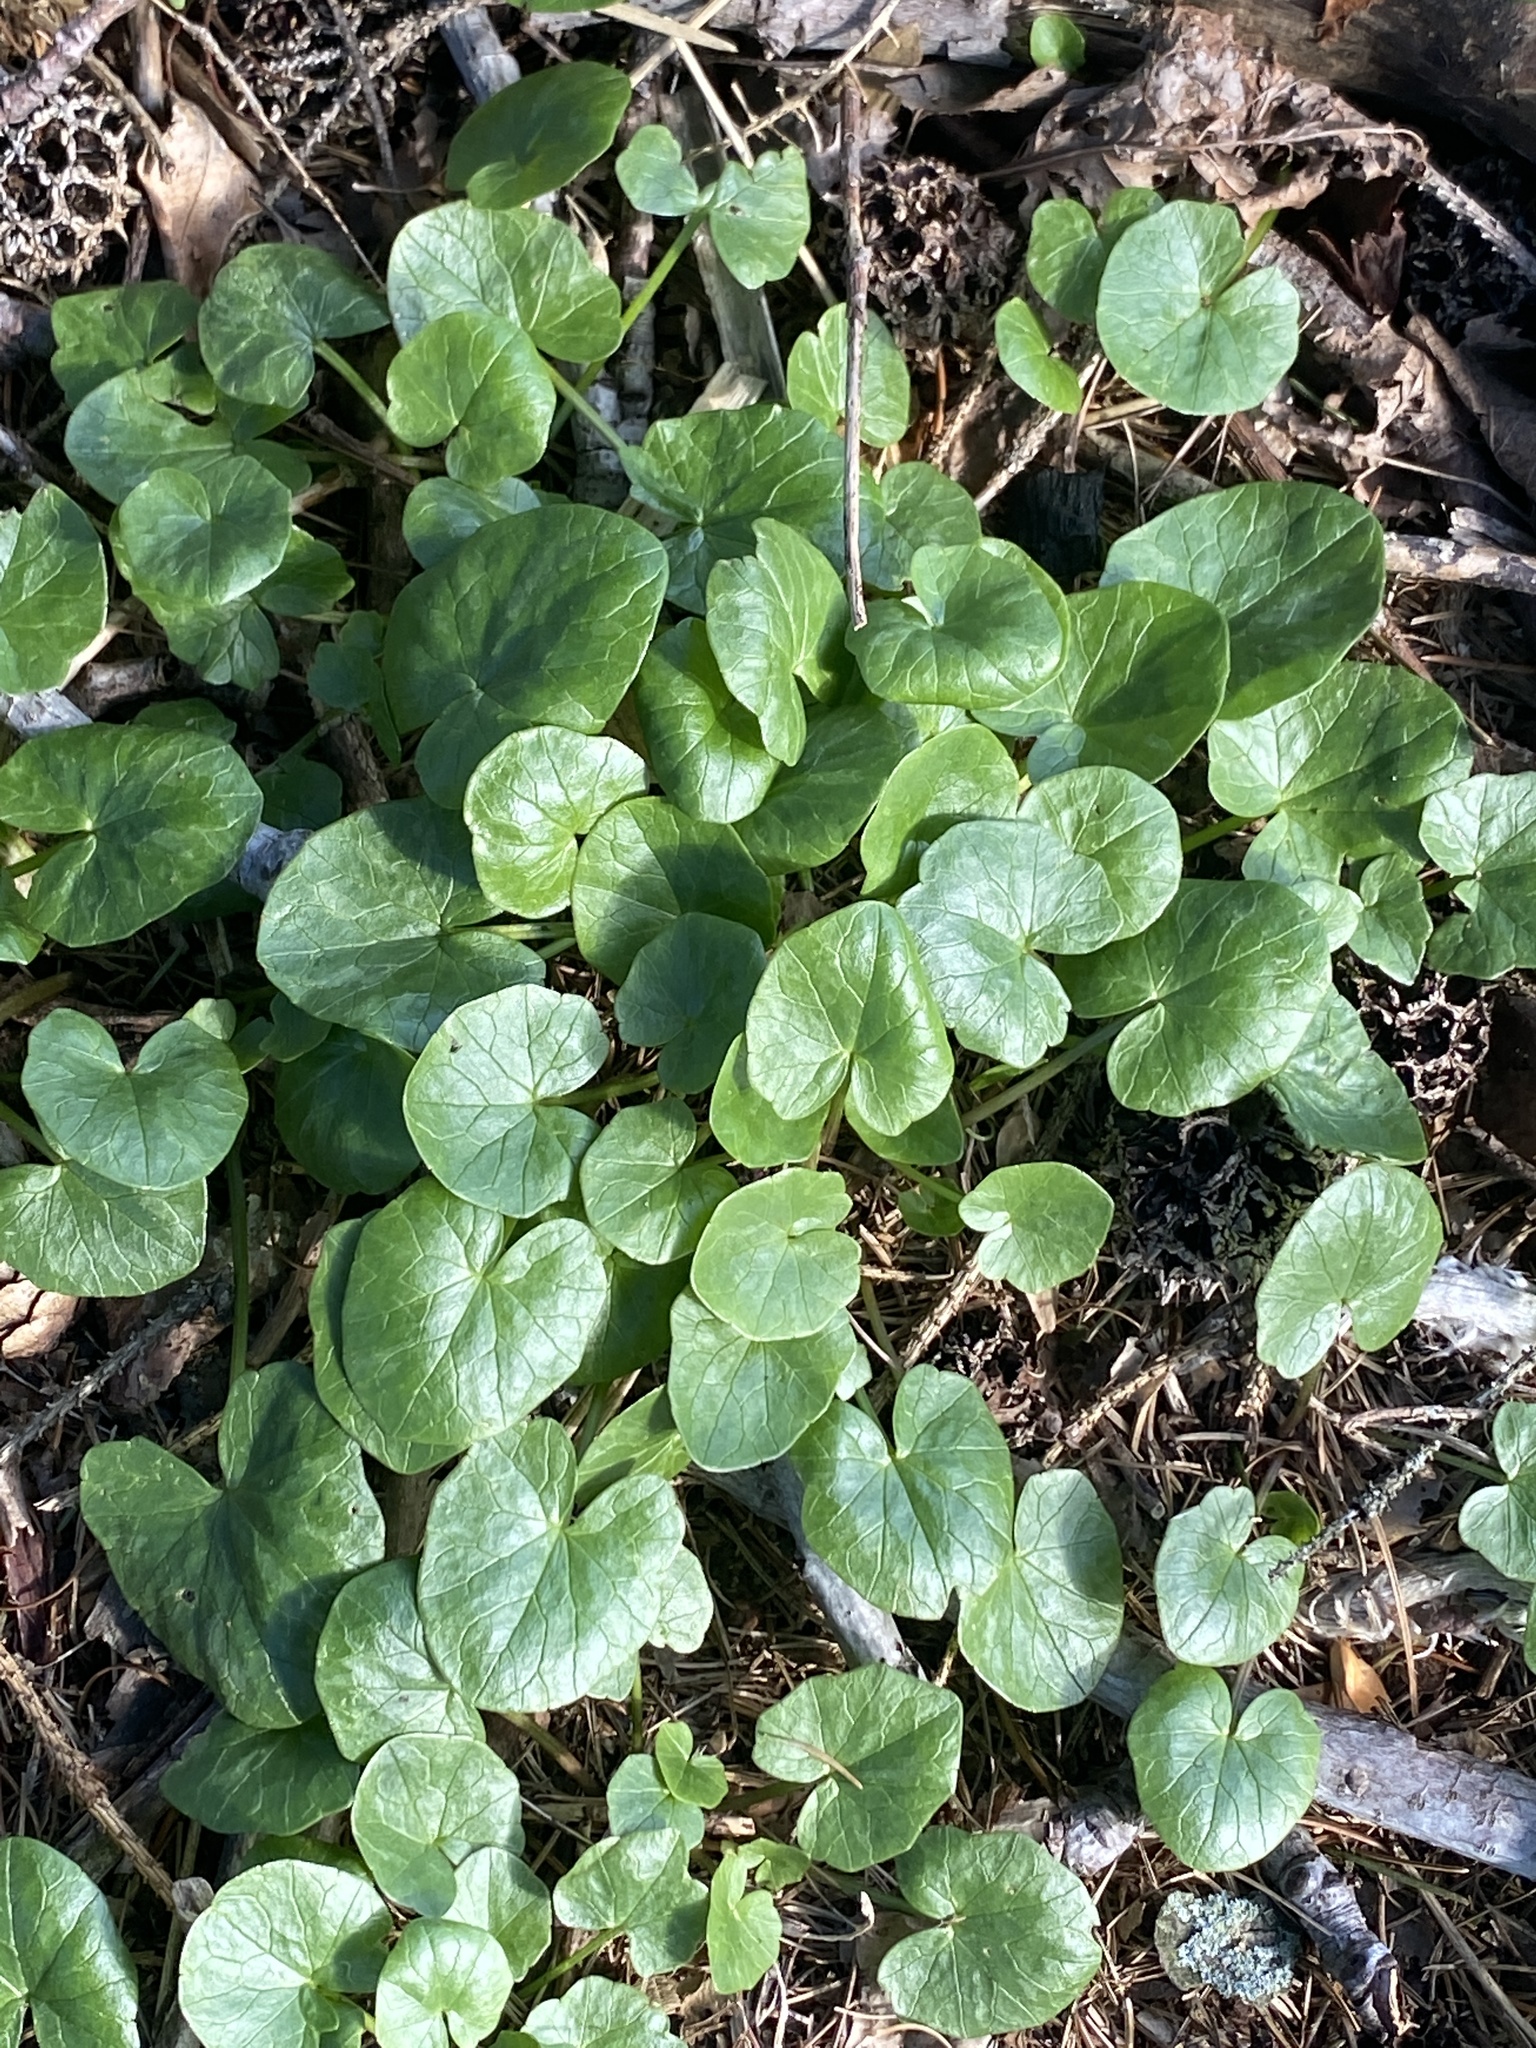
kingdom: Plantae
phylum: Tracheophyta
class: Magnoliopsida
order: Ranunculales
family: Ranunculaceae
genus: Ficaria
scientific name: Ficaria verna
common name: Lesser celandine
